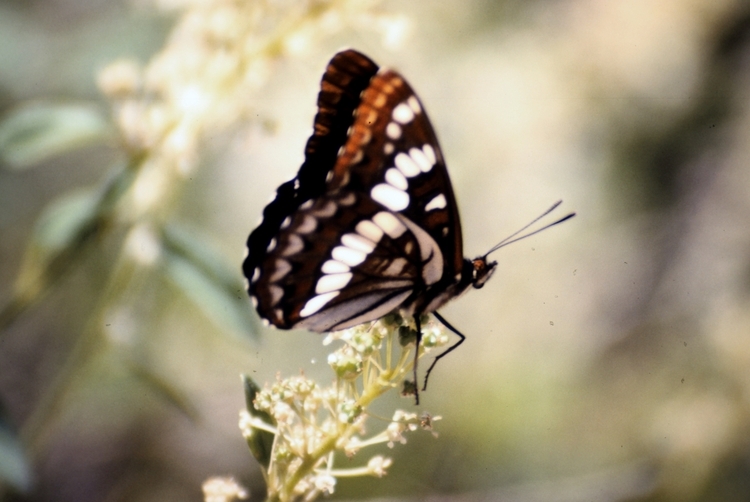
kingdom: Animalia
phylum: Arthropoda
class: Insecta
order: Lepidoptera
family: Nymphalidae
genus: Limenitis
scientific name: Limenitis lorquini
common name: Lorquin's admiral
